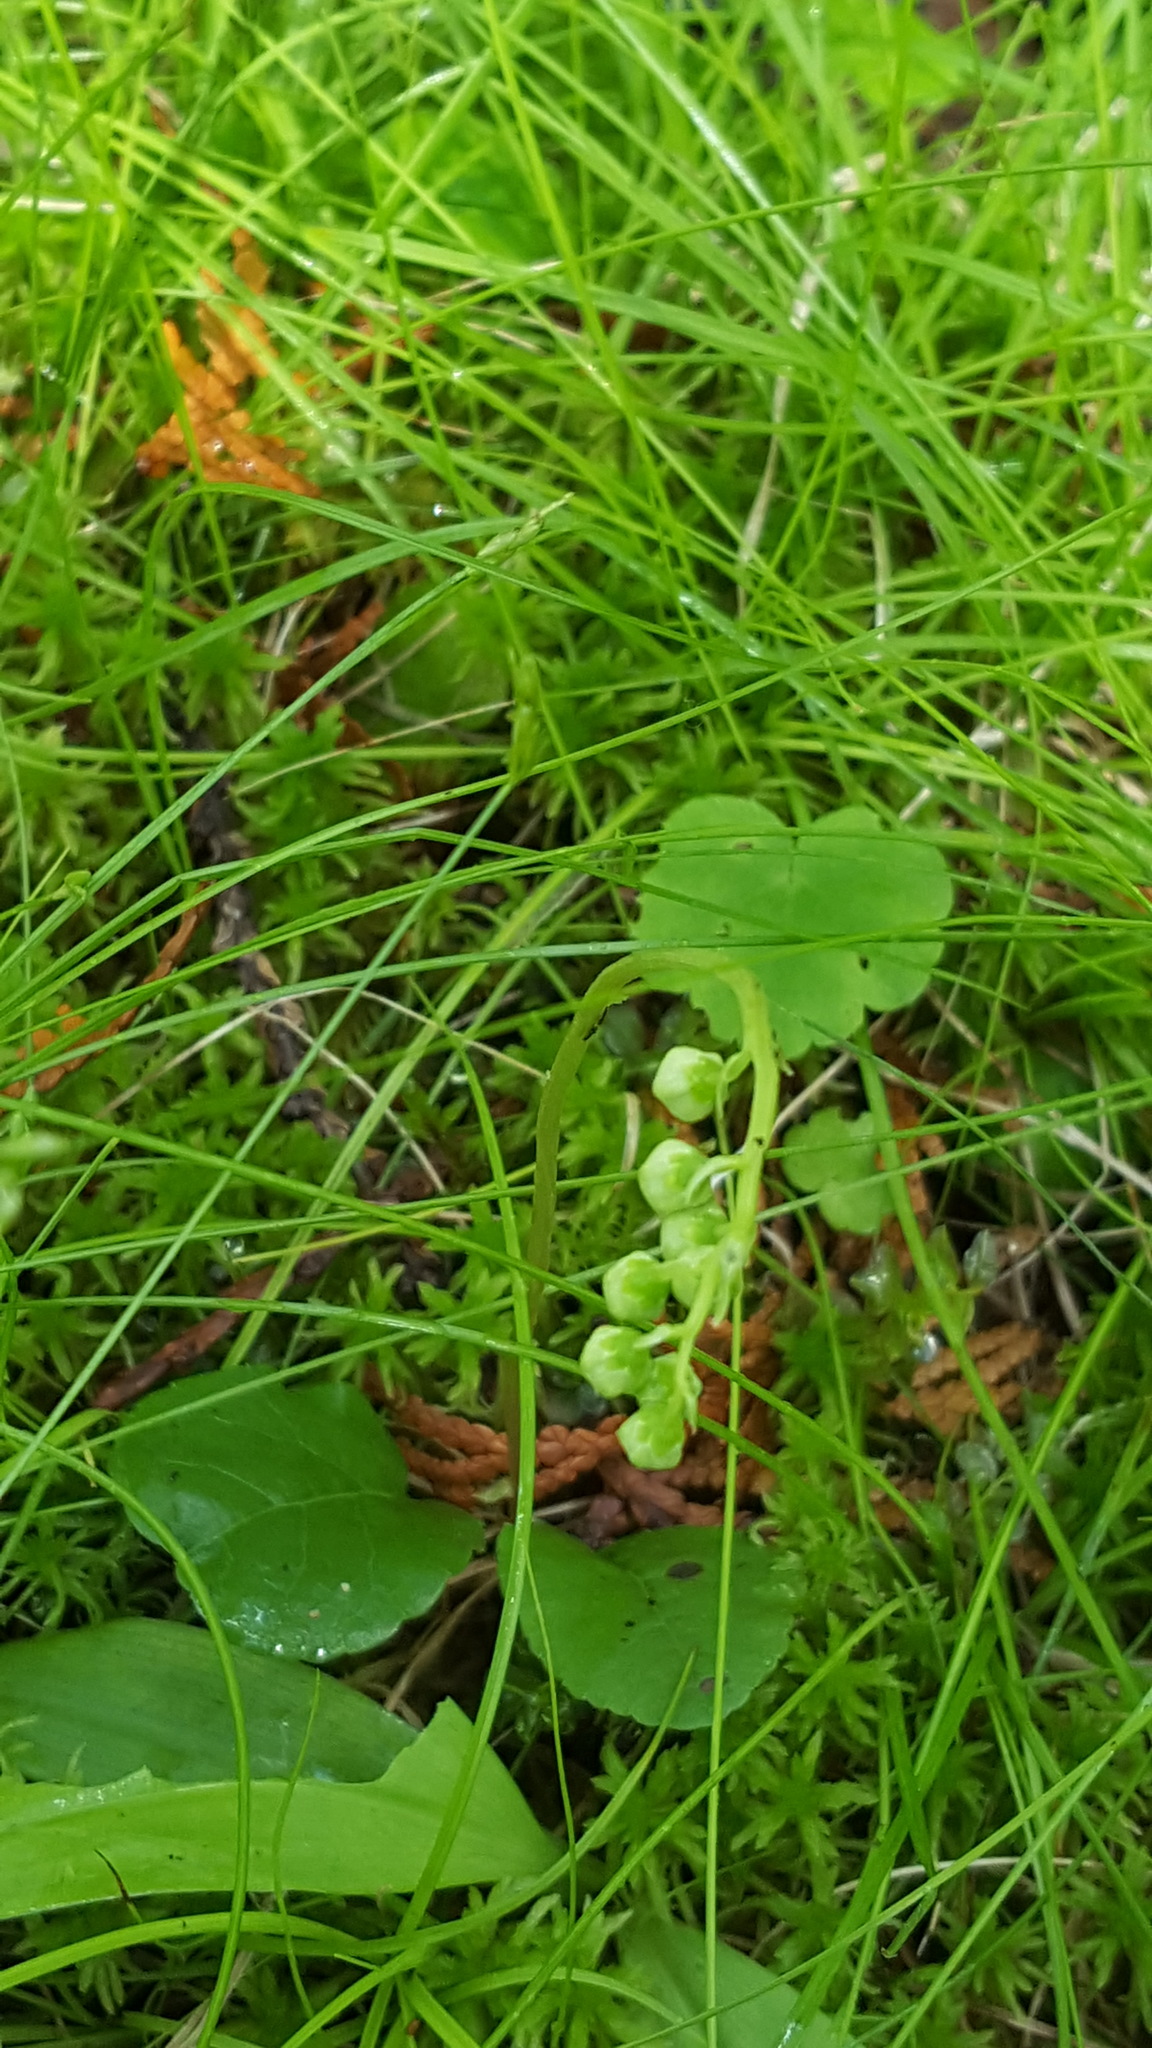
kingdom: Plantae
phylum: Tracheophyta
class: Magnoliopsida
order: Ericales
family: Ericaceae
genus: Orthilia
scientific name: Orthilia secunda
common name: One-sided orthilia
